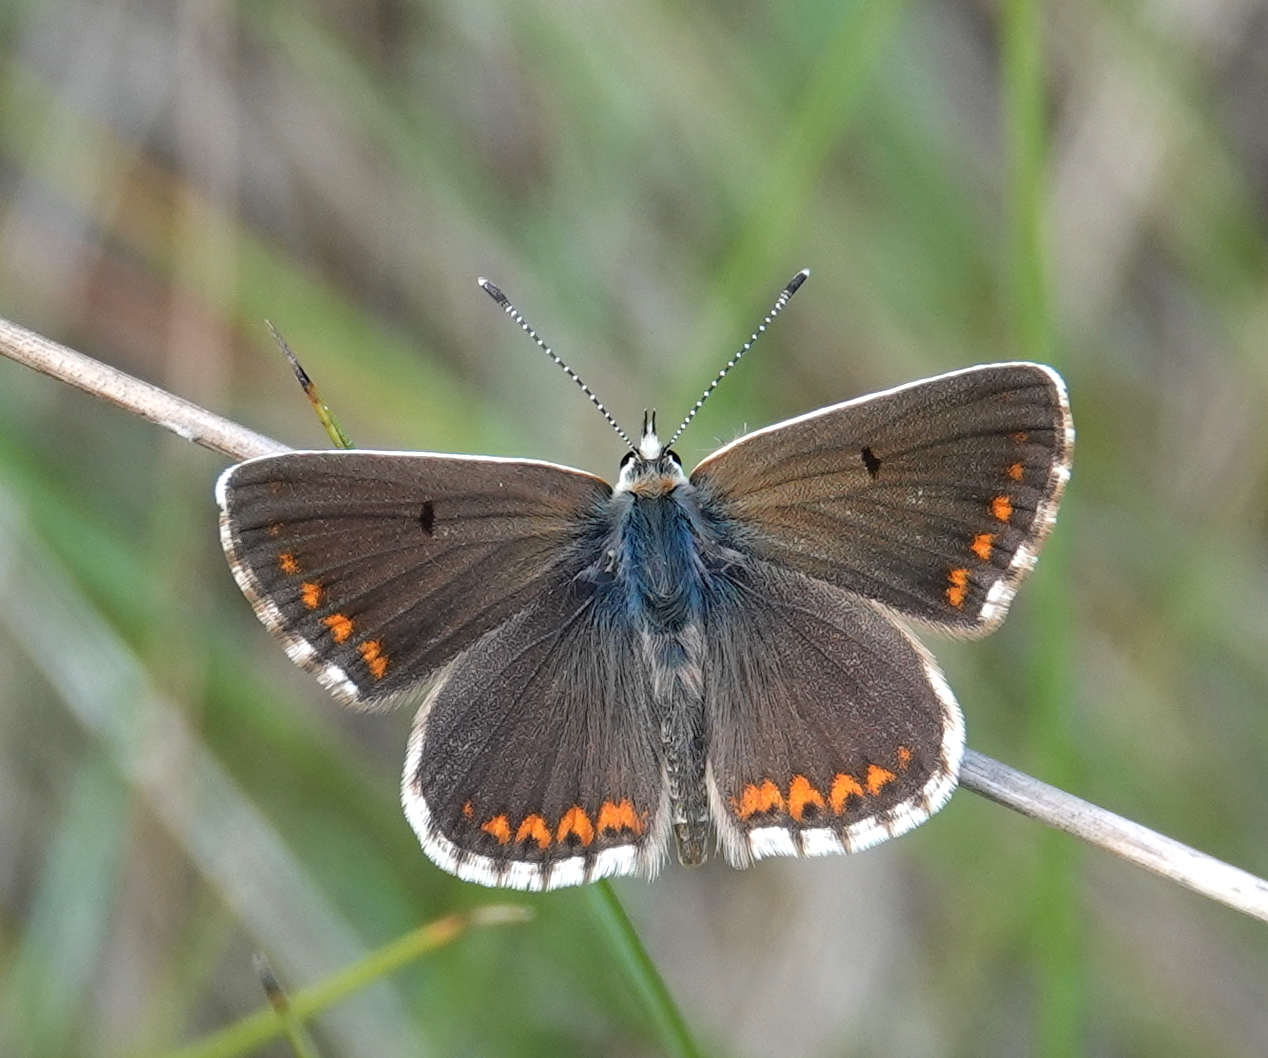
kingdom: Animalia
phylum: Arthropoda
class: Insecta
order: Lepidoptera
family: Lycaenidae
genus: Polyommatus
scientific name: Polyommatus celina
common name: Austaut's blue
